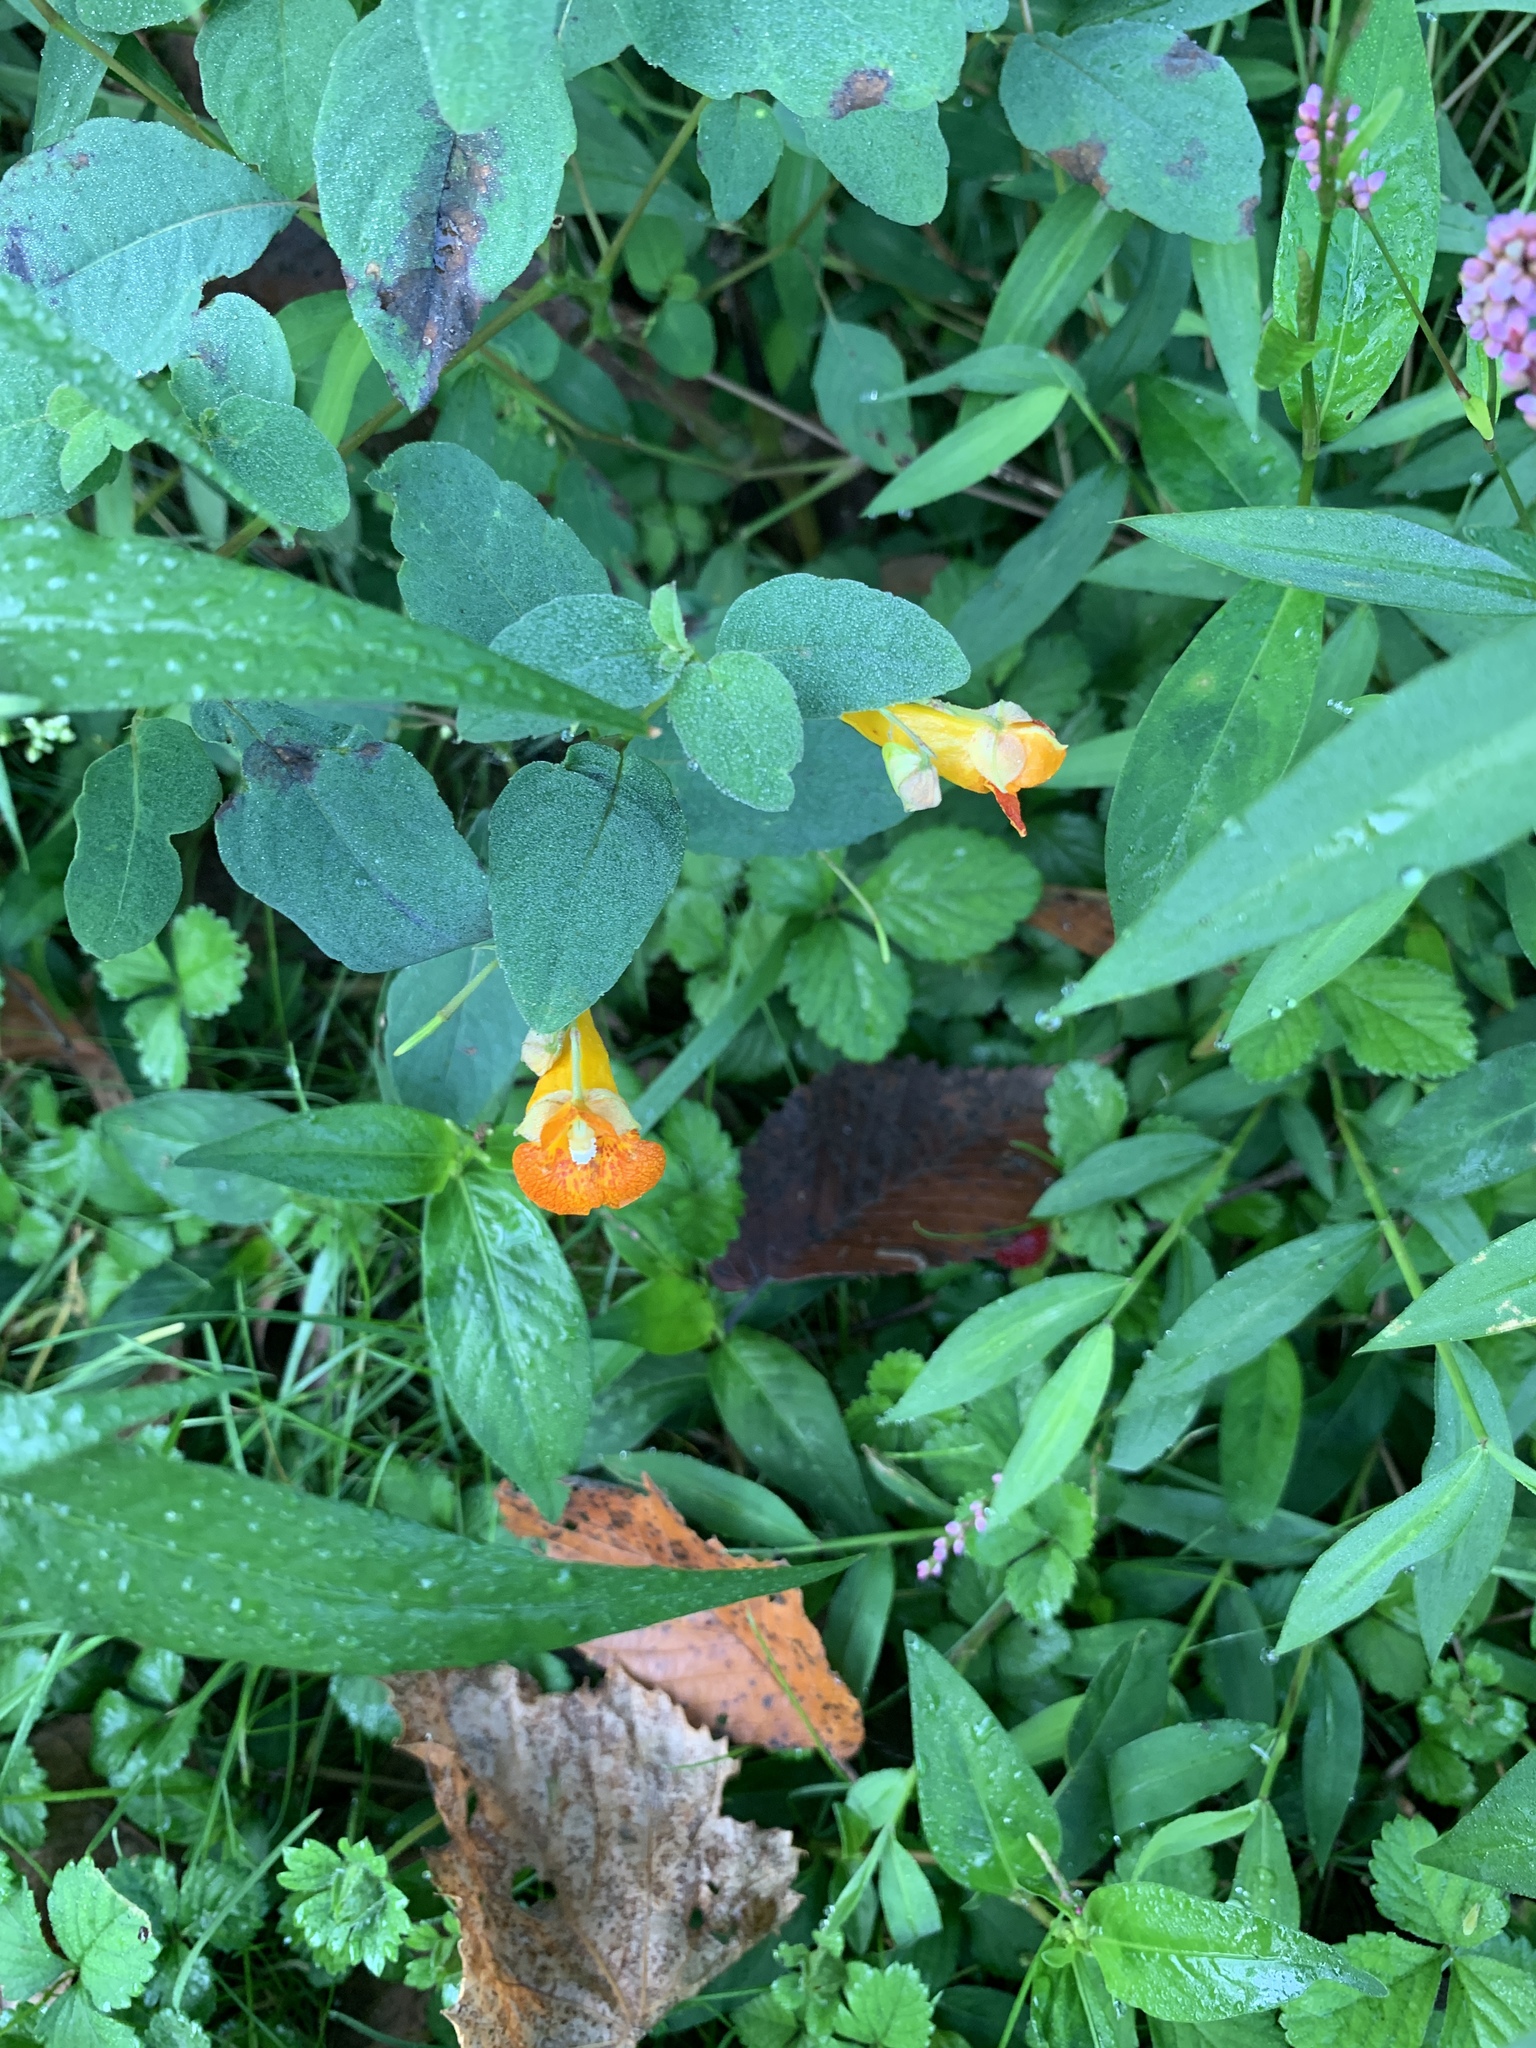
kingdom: Plantae
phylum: Tracheophyta
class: Magnoliopsida
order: Ericales
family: Balsaminaceae
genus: Impatiens
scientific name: Impatiens capensis
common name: Orange balsam
